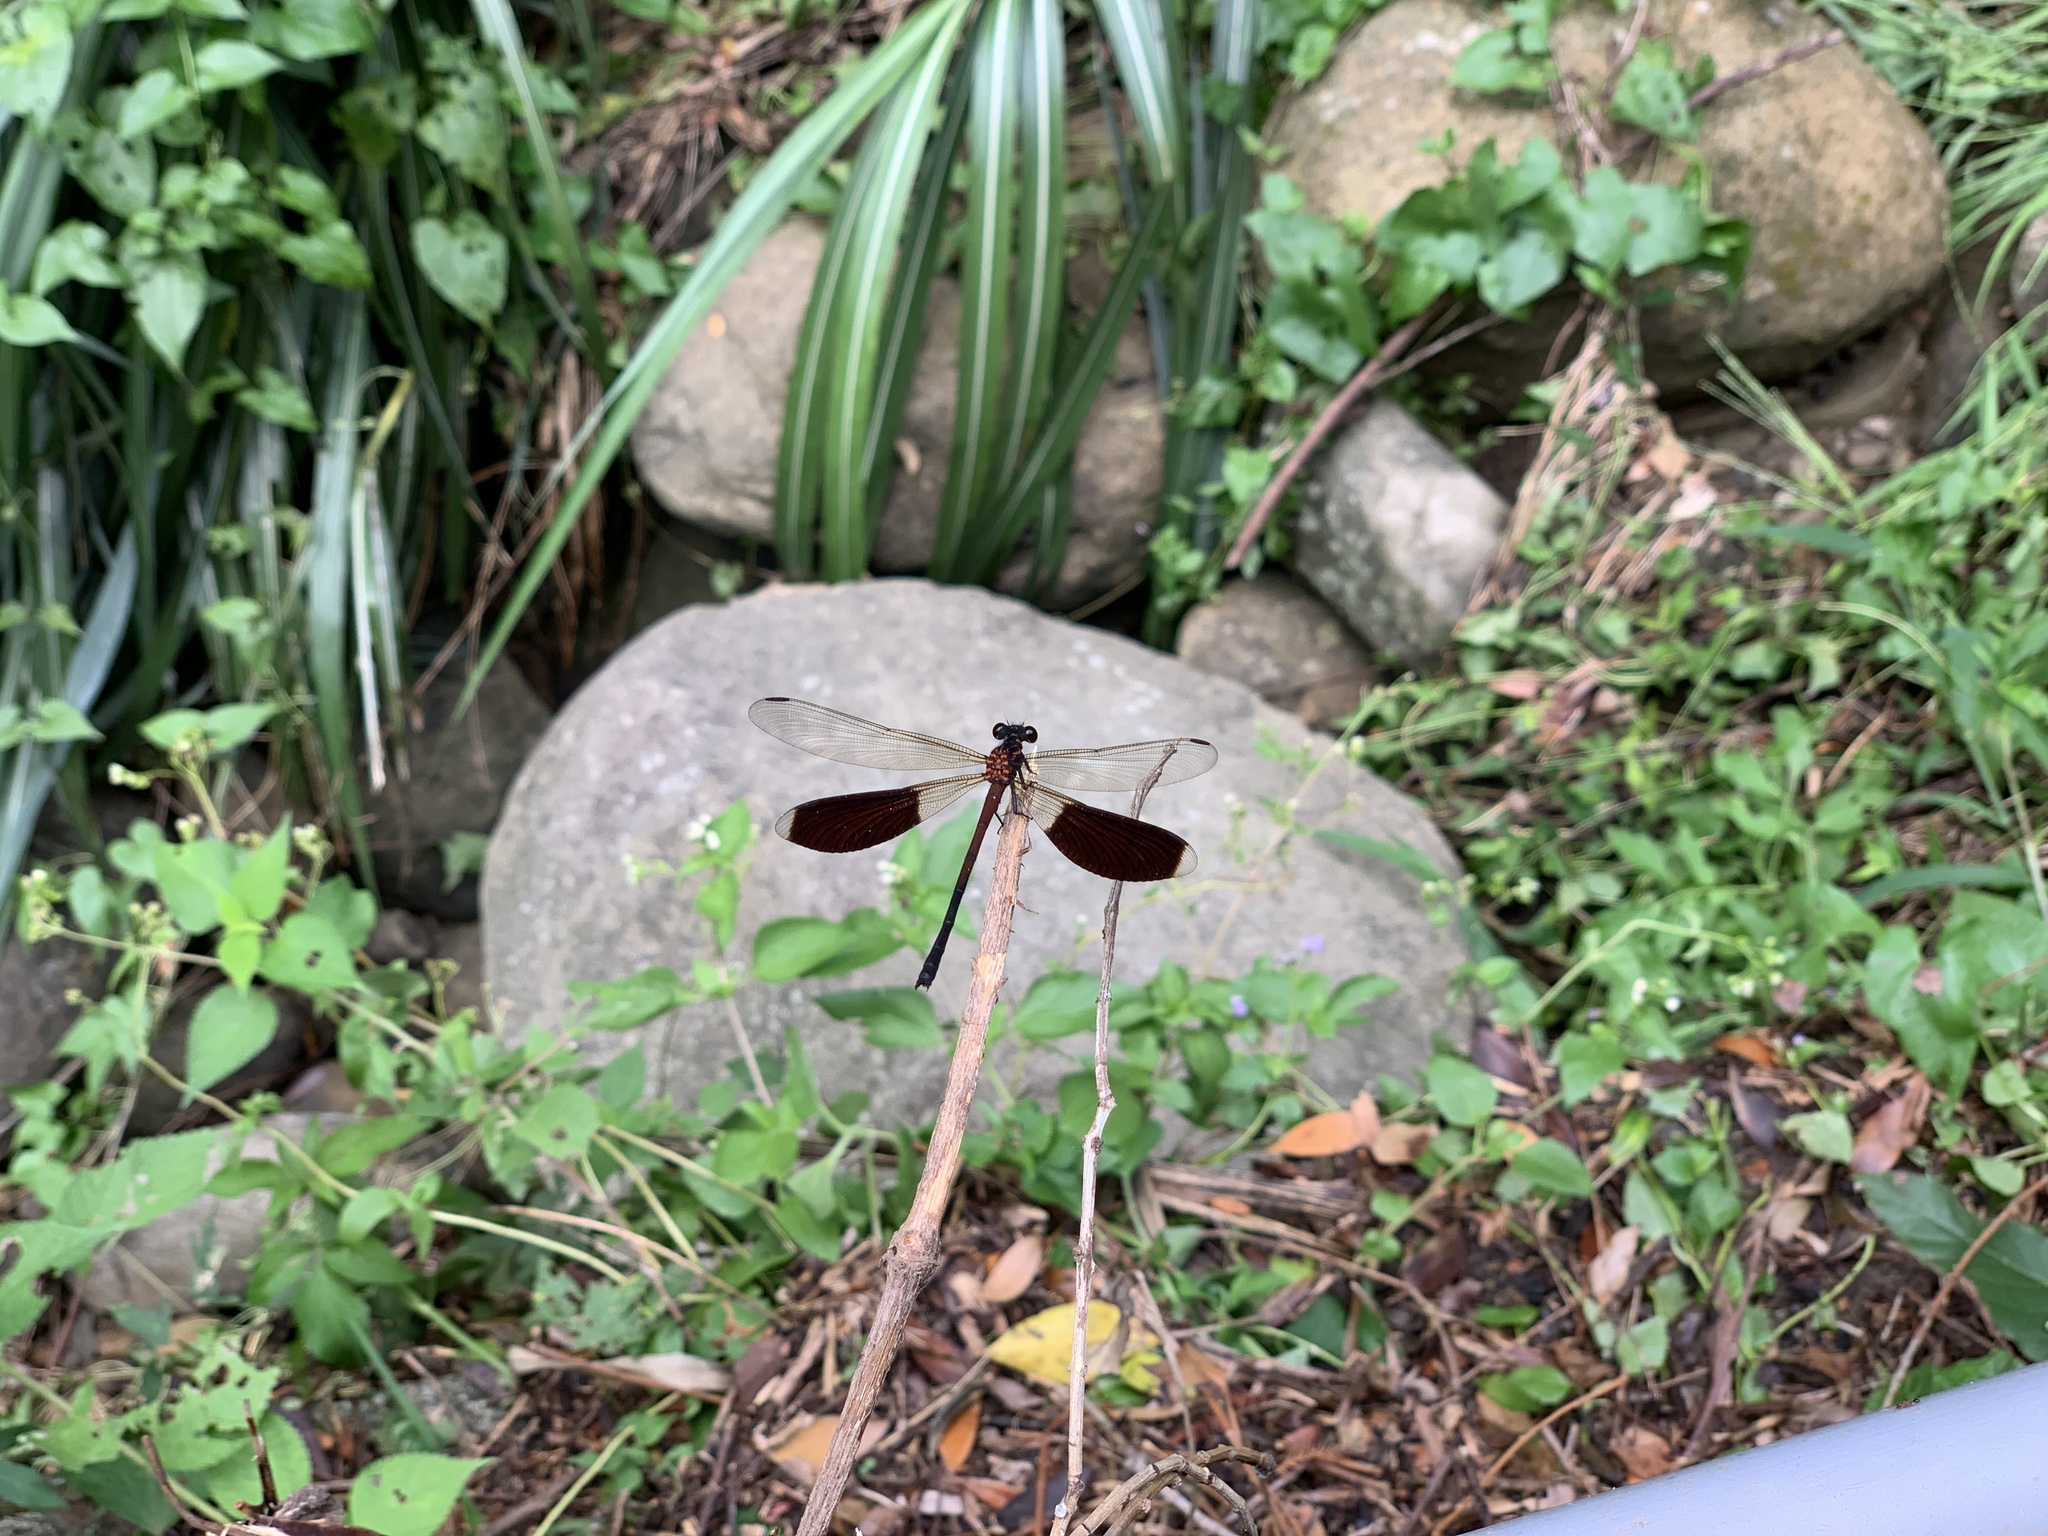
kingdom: Animalia
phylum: Arthropoda
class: Insecta
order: Odonata
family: Euphaeidae
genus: Euphaea
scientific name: Euphaea formosa
